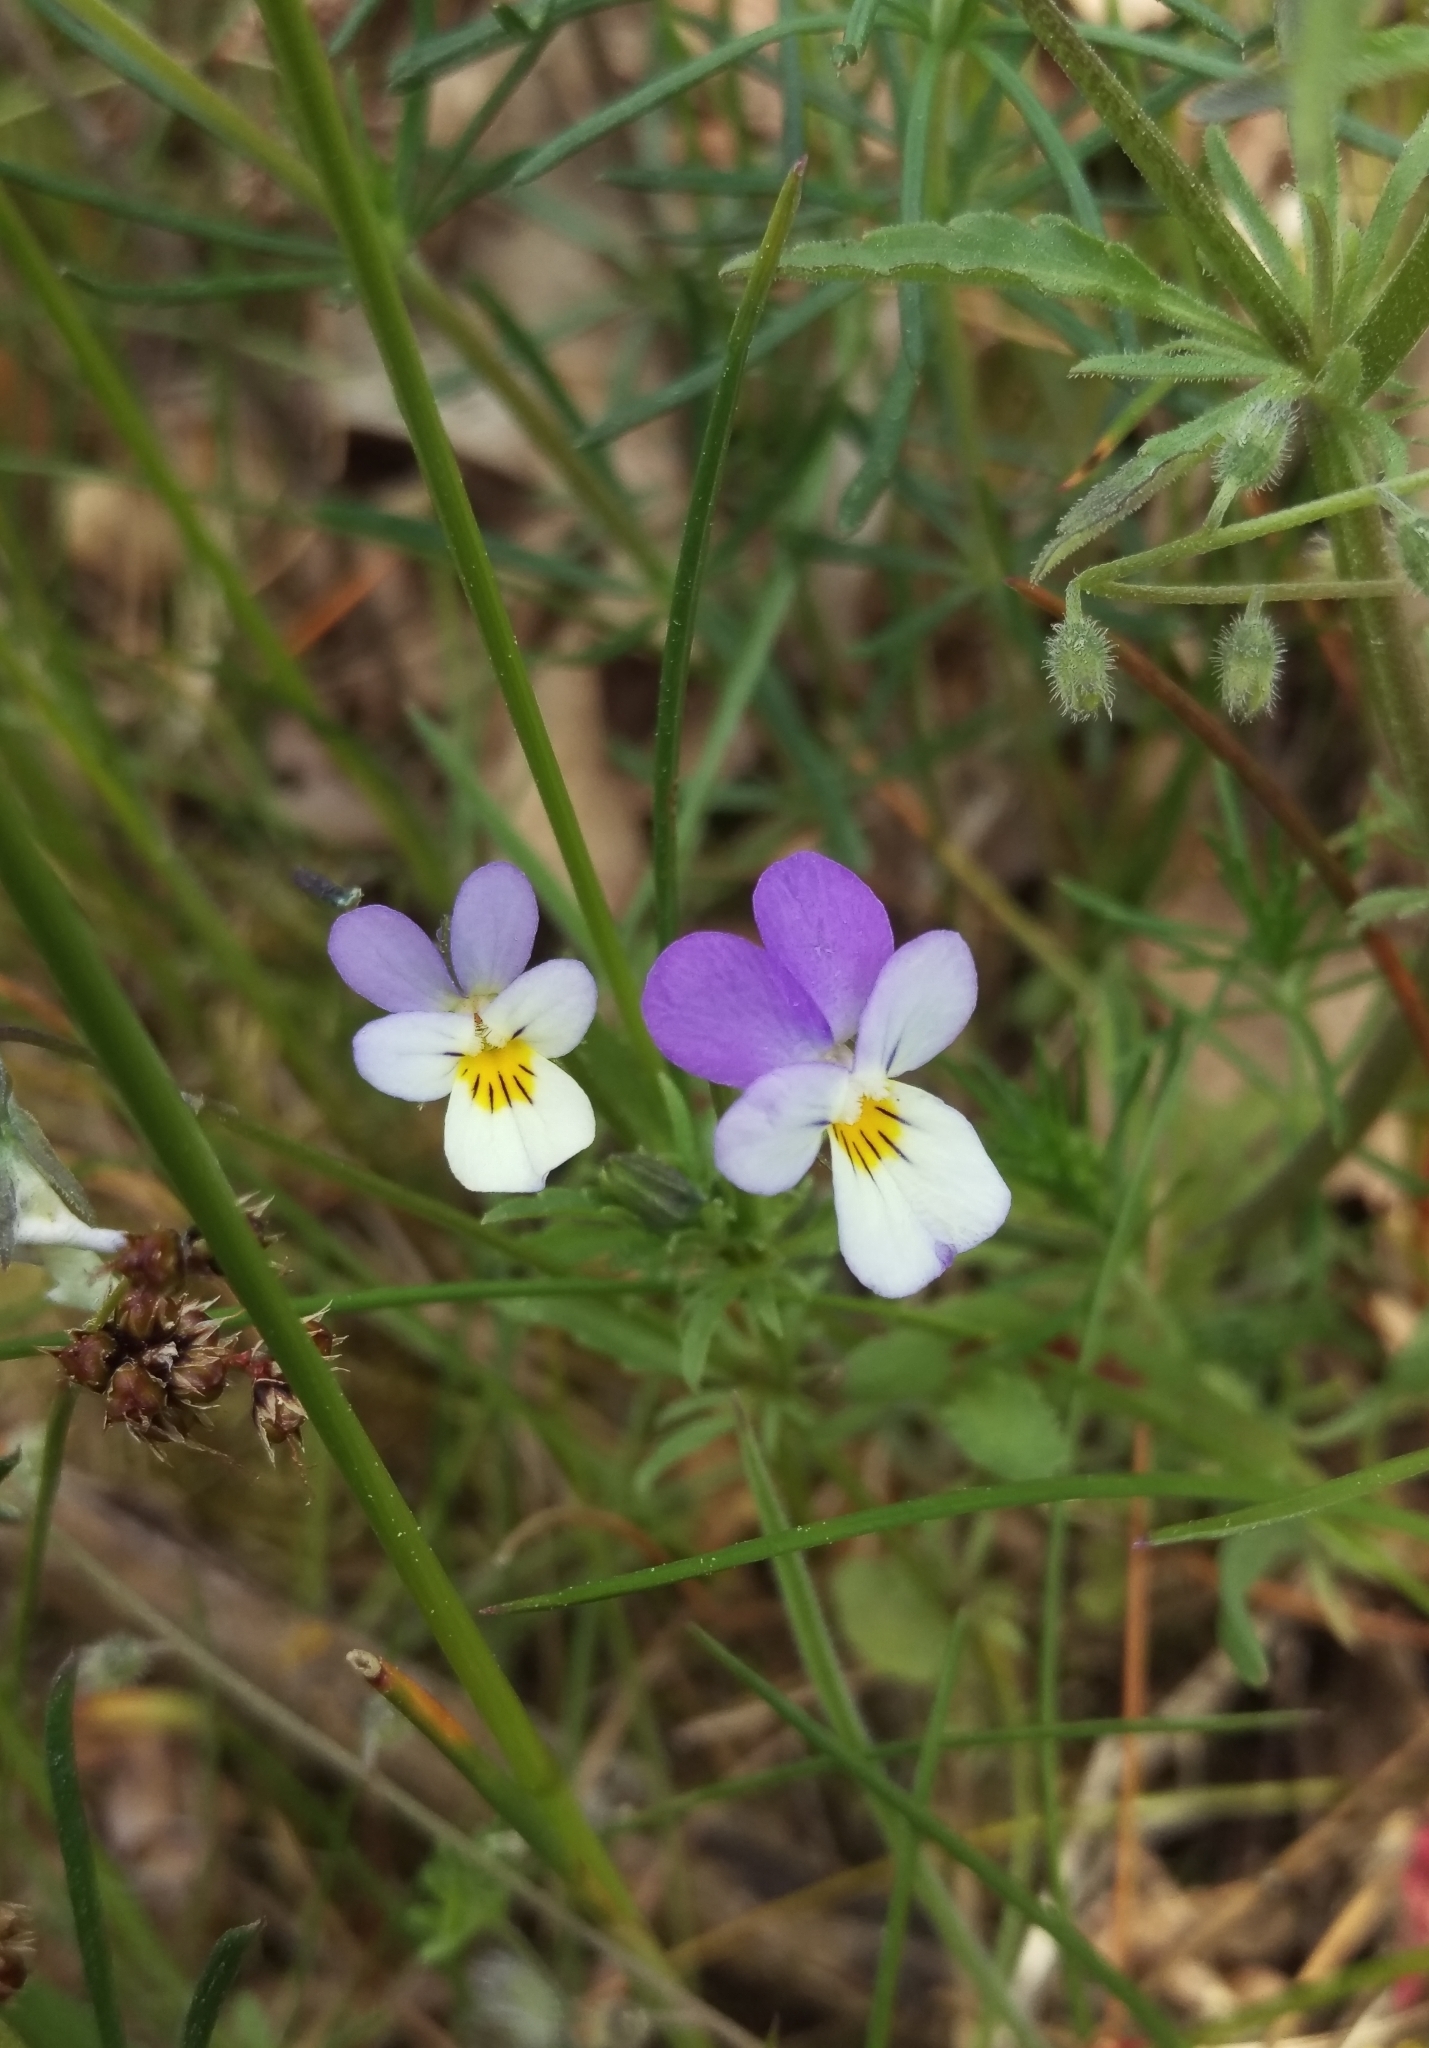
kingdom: Plantae
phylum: Tracheophyta
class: Magnoliopsida
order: Malpighiales
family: Violaceae
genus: Viola
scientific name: Viola tricolor
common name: Pansy
